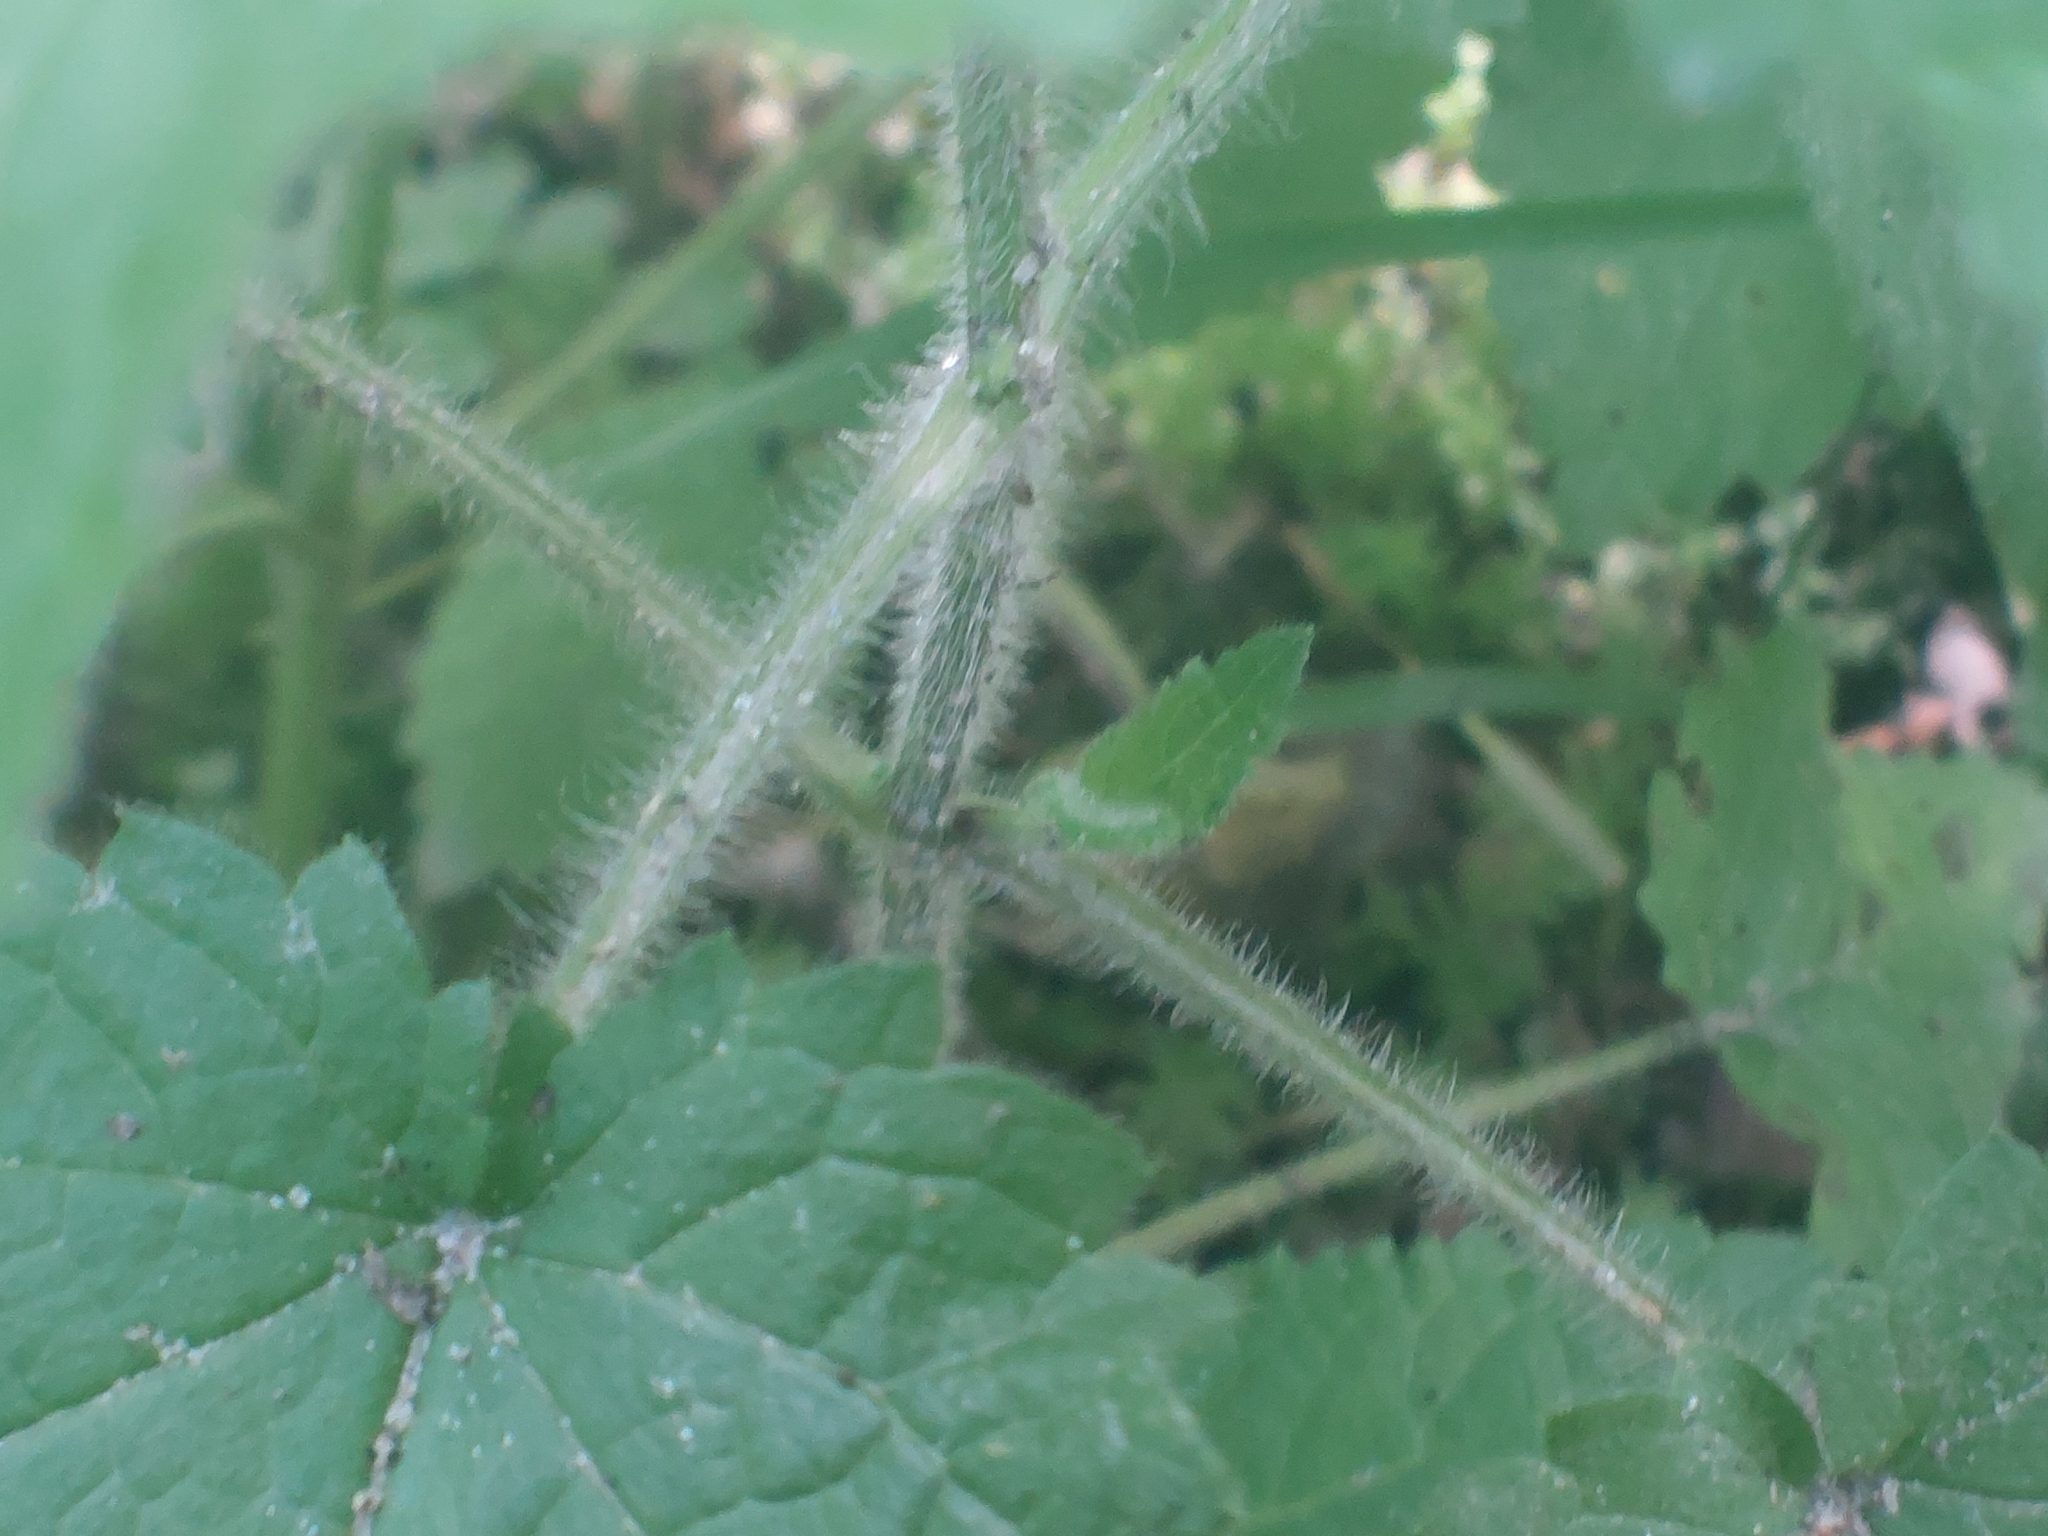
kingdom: Plantae
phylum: Tracheophyta
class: Magnoliopsida
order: Lamiales
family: Lamiaceae
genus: Stachys
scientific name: Stachys sylvatica
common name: Hedge woundwort
